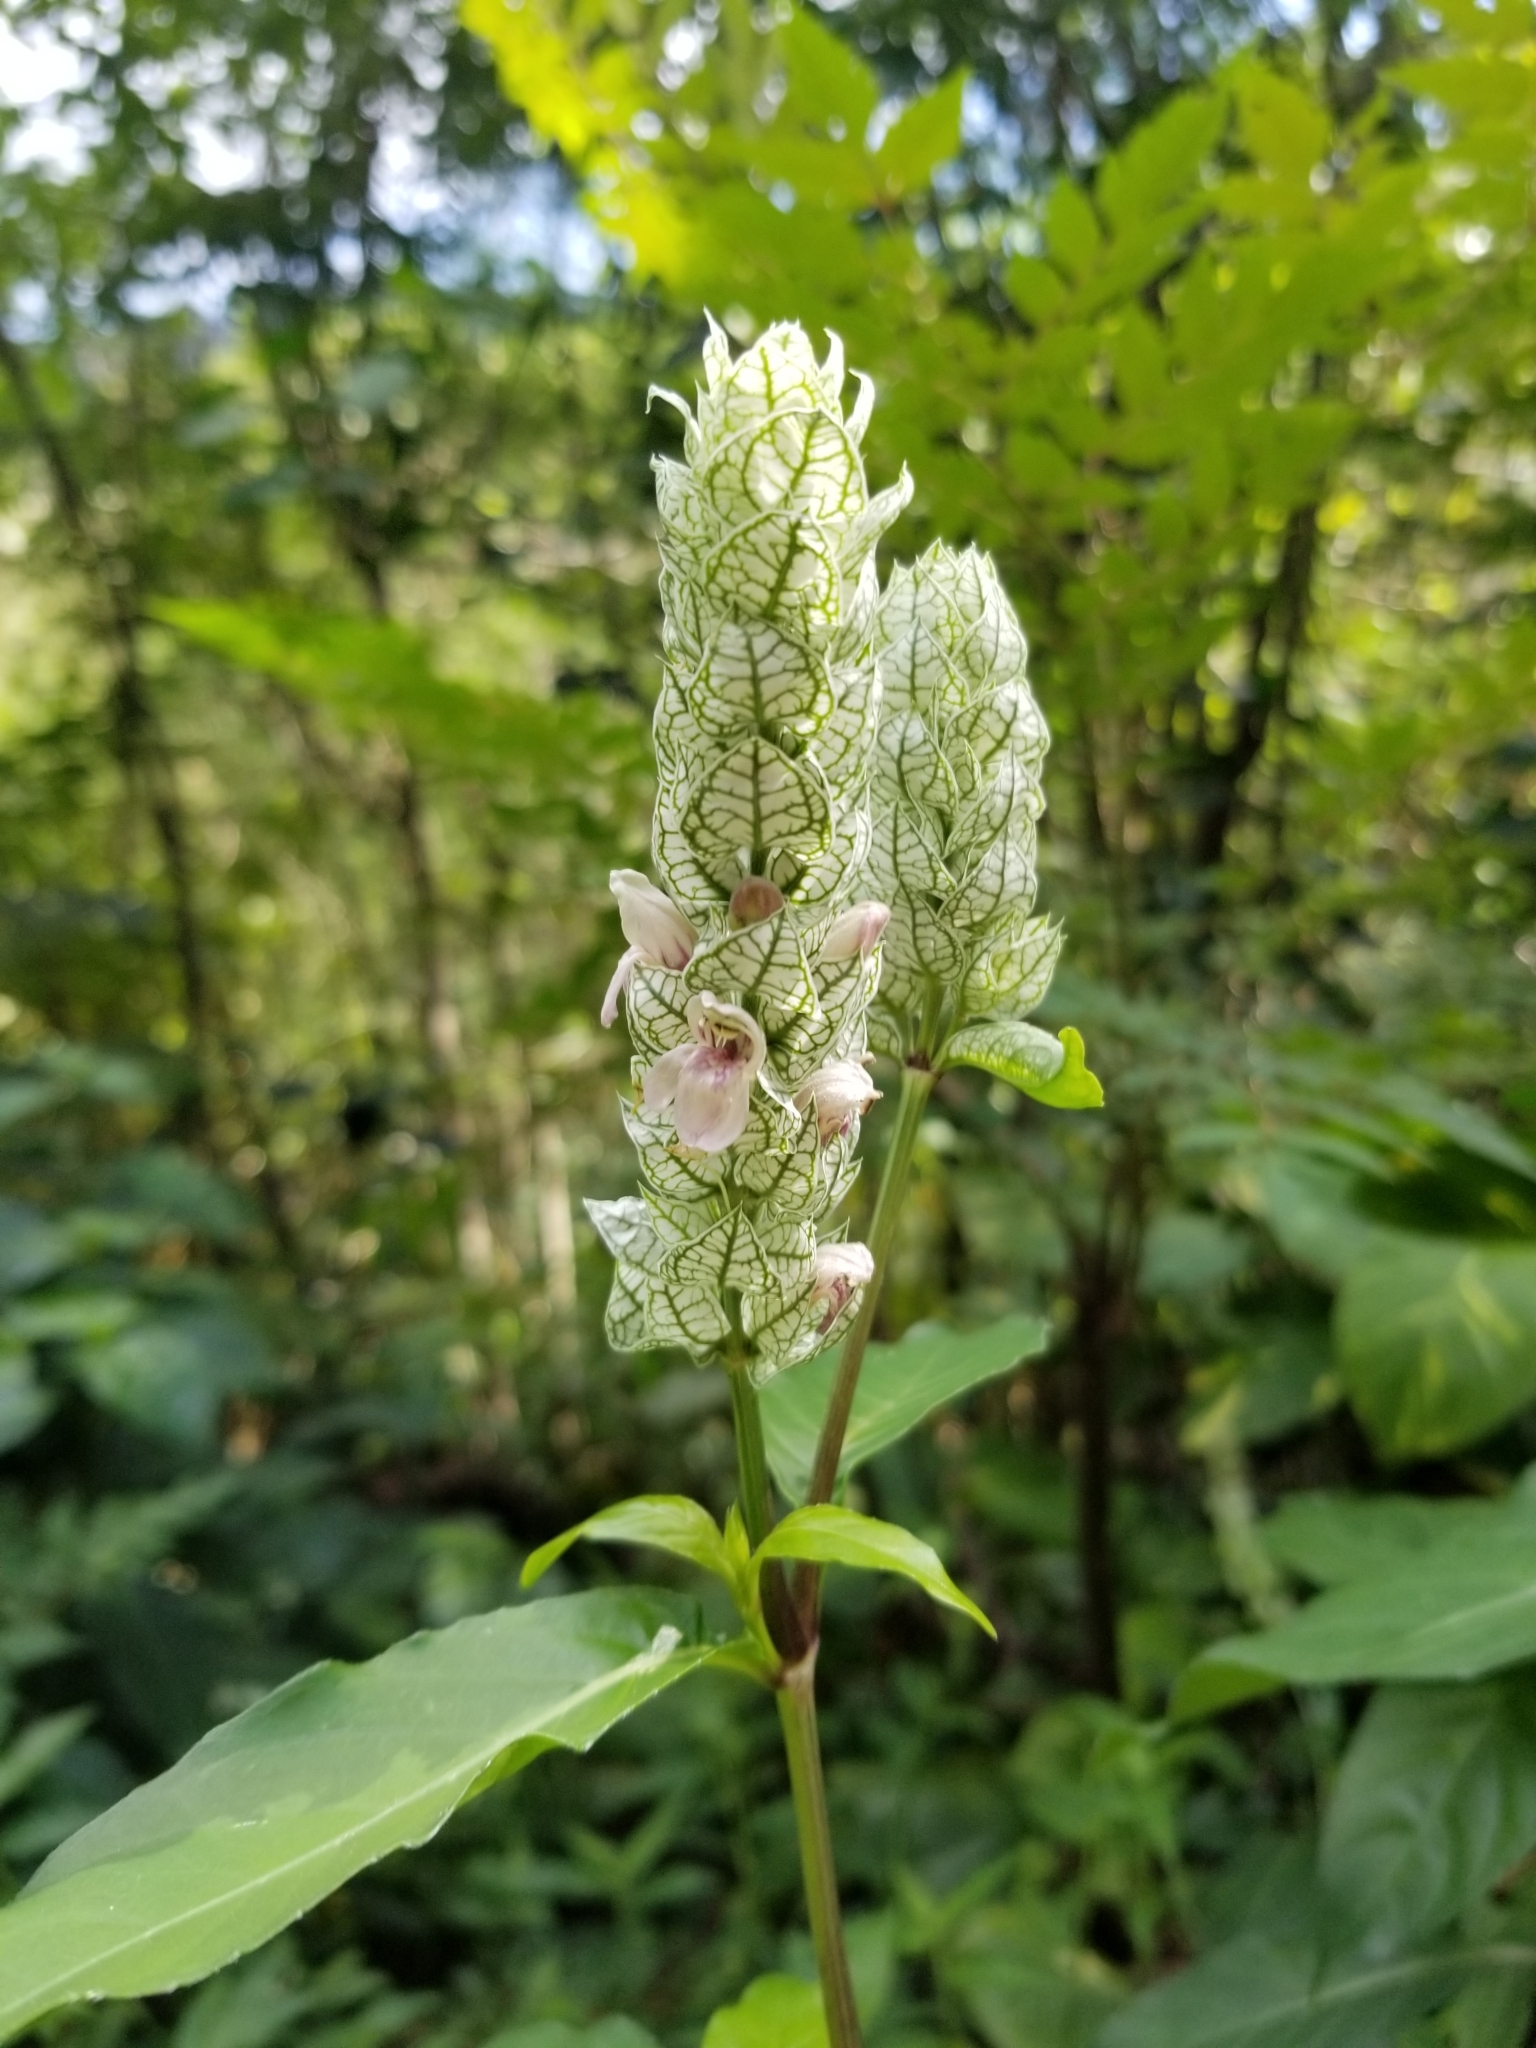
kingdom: Plantae
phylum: Tracheophyta
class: Magnoliopsida
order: Lamiales
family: Acanthaceae
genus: Justicia
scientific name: Justicia betonica
